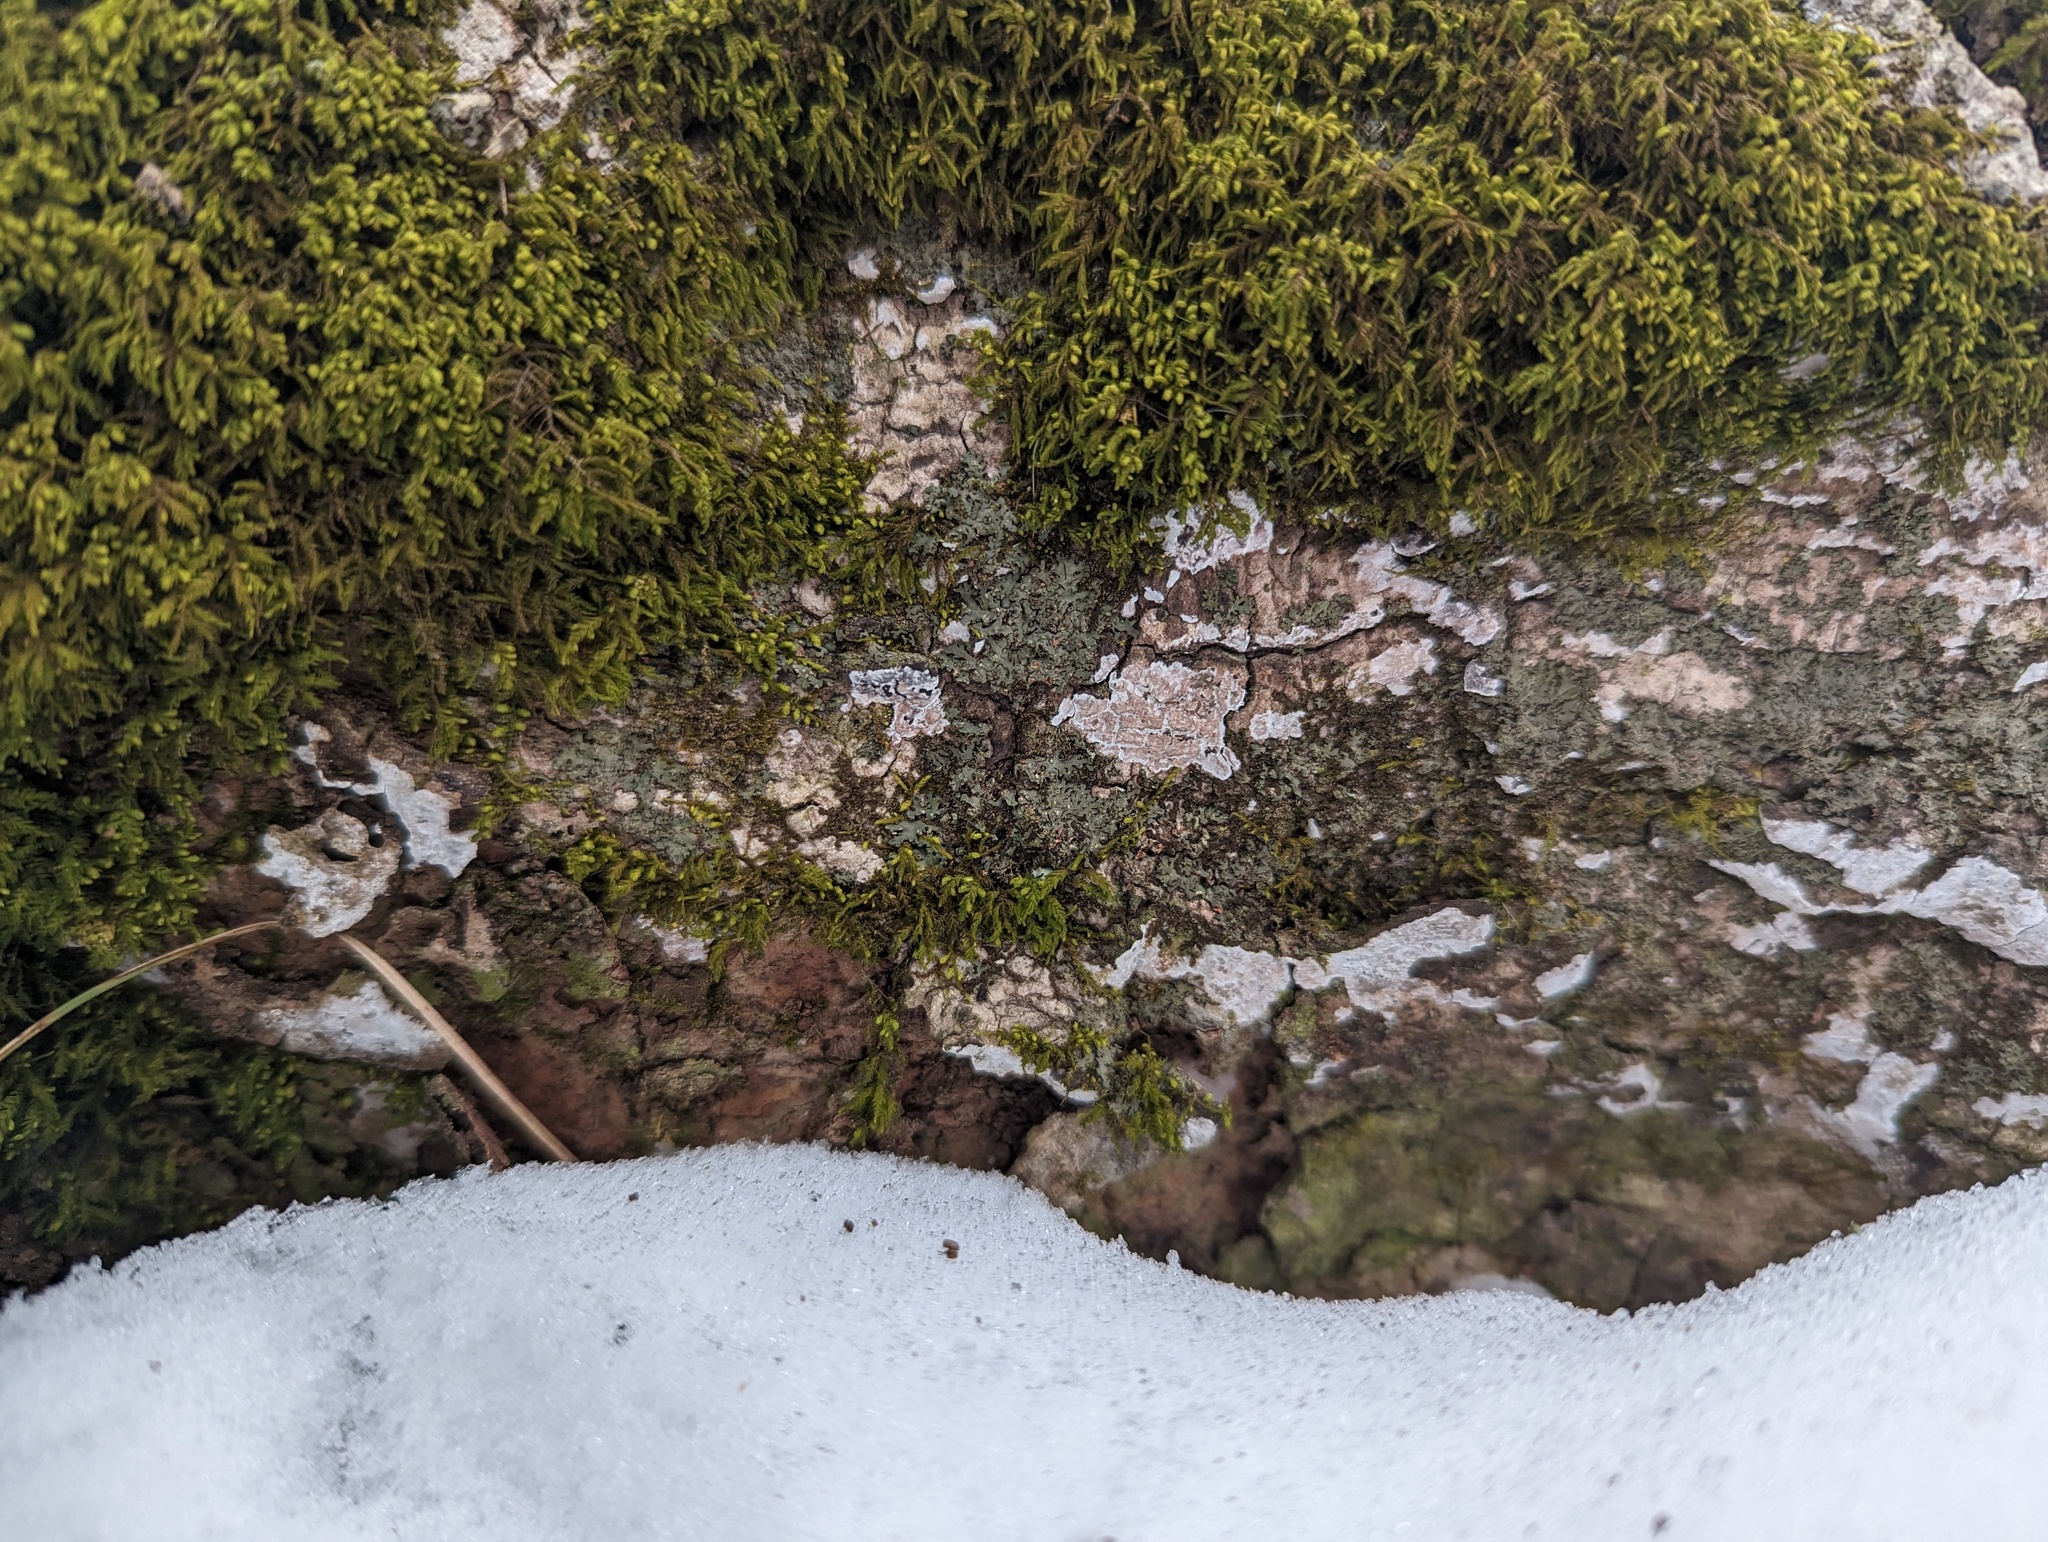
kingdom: Plantae
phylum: Bryophyta
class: Bryopsida
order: Hypnales
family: Neckeraceae
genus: Pseudanomodon
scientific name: Pseudanomodon attenuatus
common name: Tree-skirt moss
